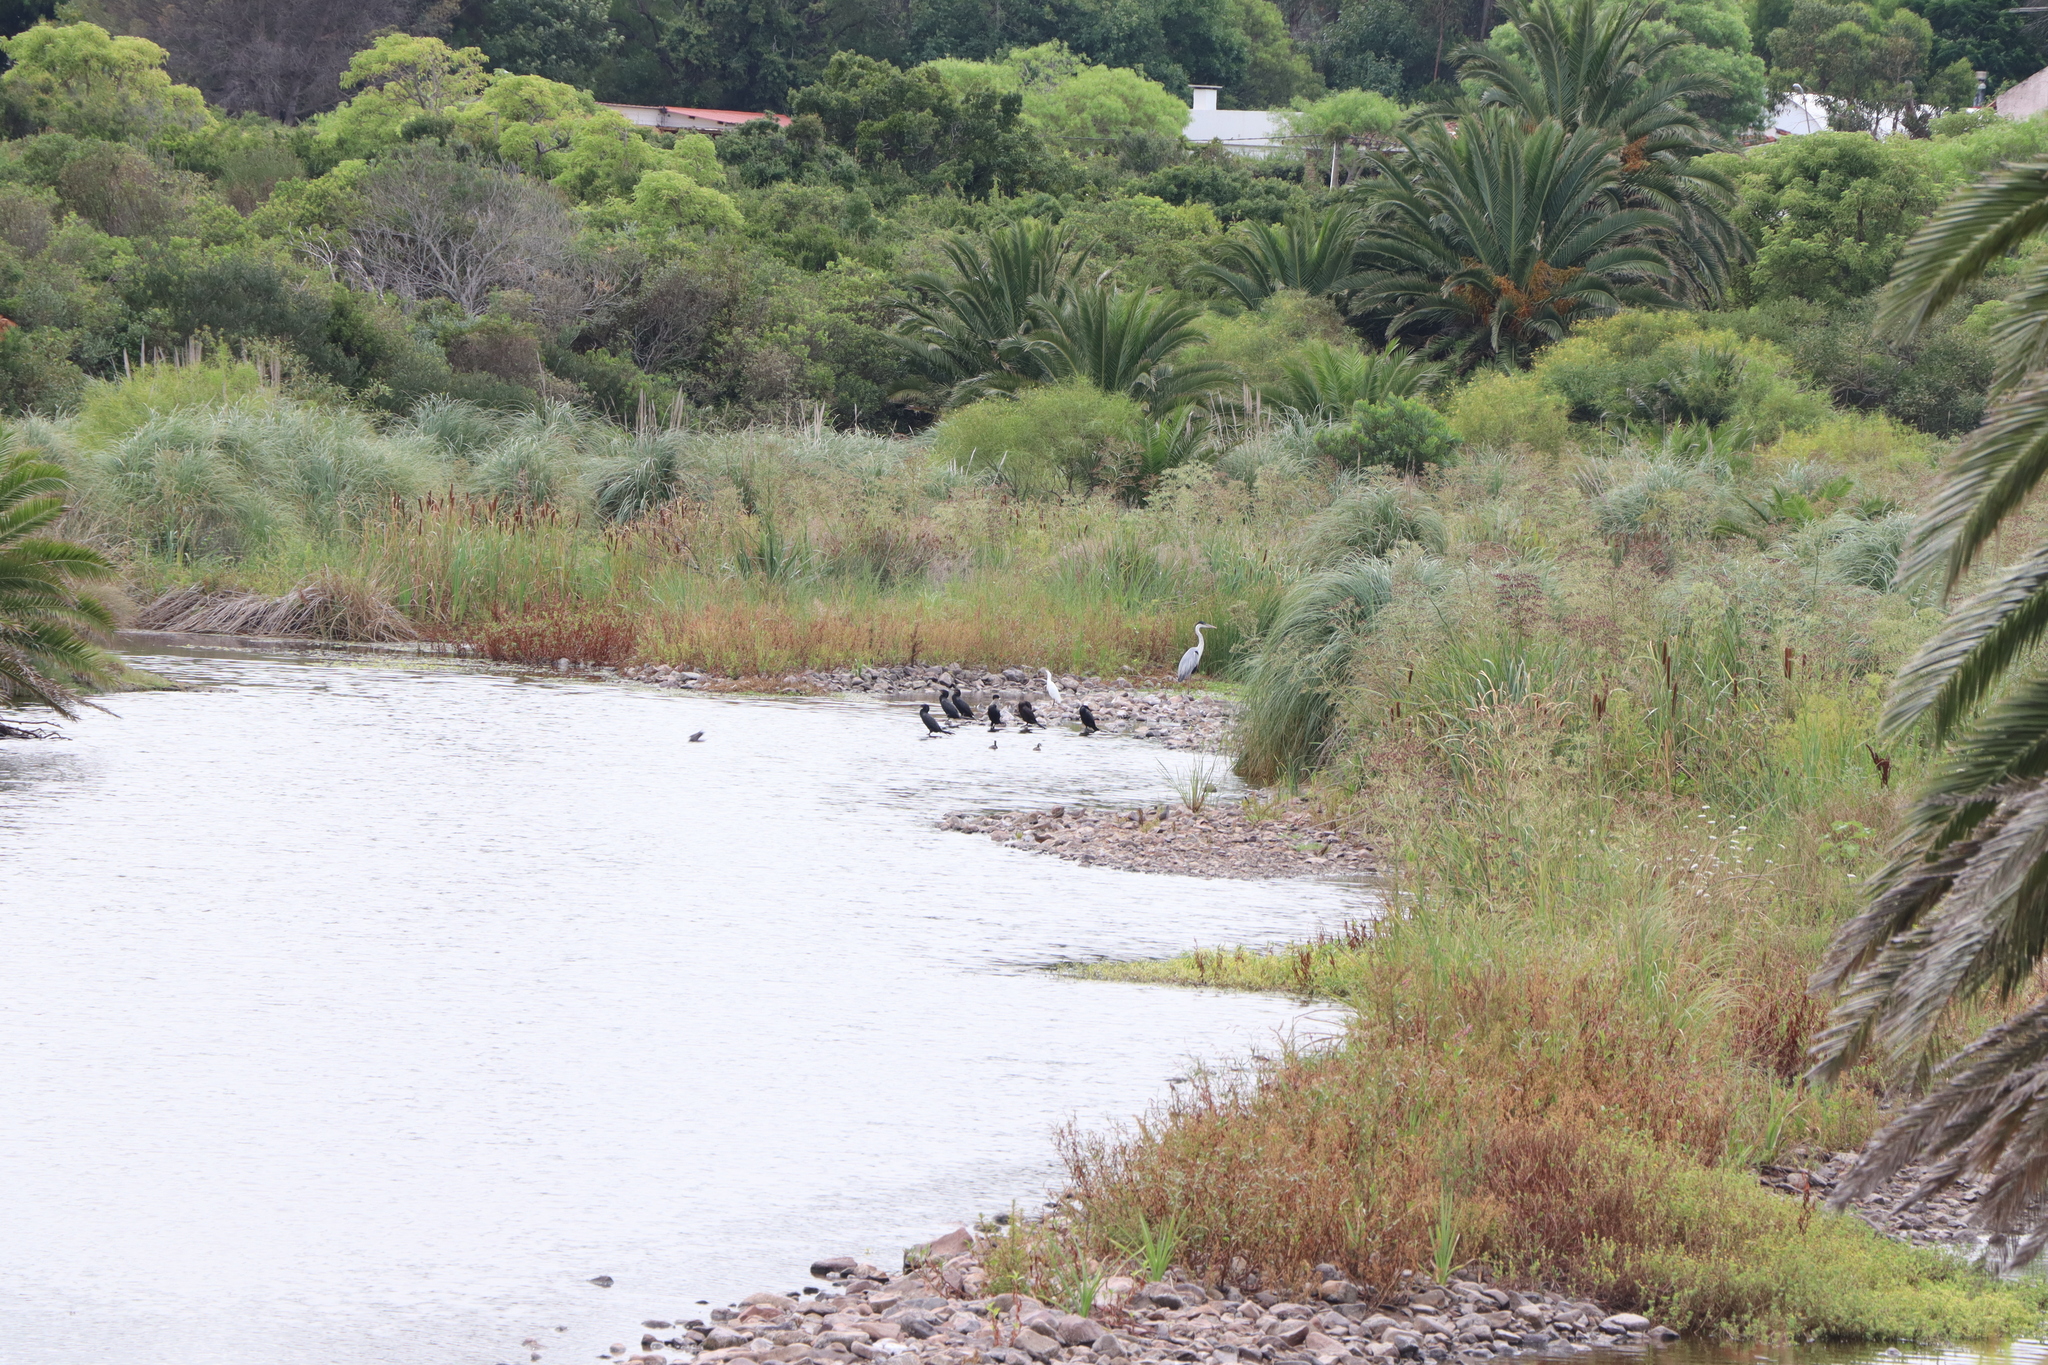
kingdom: Animalia
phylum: Chordata
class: Aves
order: Pelecaniformes
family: Ardeidae
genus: Ardea
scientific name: Ardea cocoi
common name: Cocoi heron
